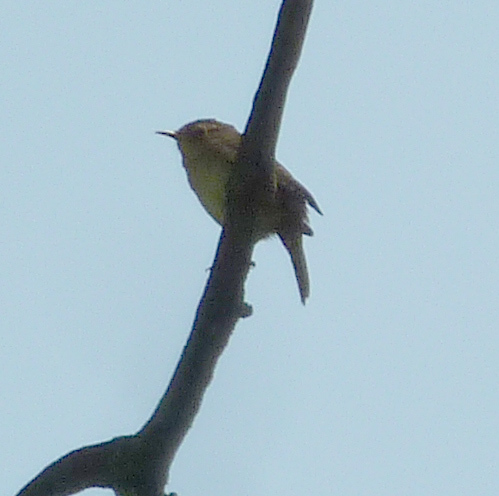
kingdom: Animalia
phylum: Chordata
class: Aves
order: Passeriformes
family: Troglodytidae
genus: Troglodytes
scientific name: Troglodytes aedon
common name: House wren
